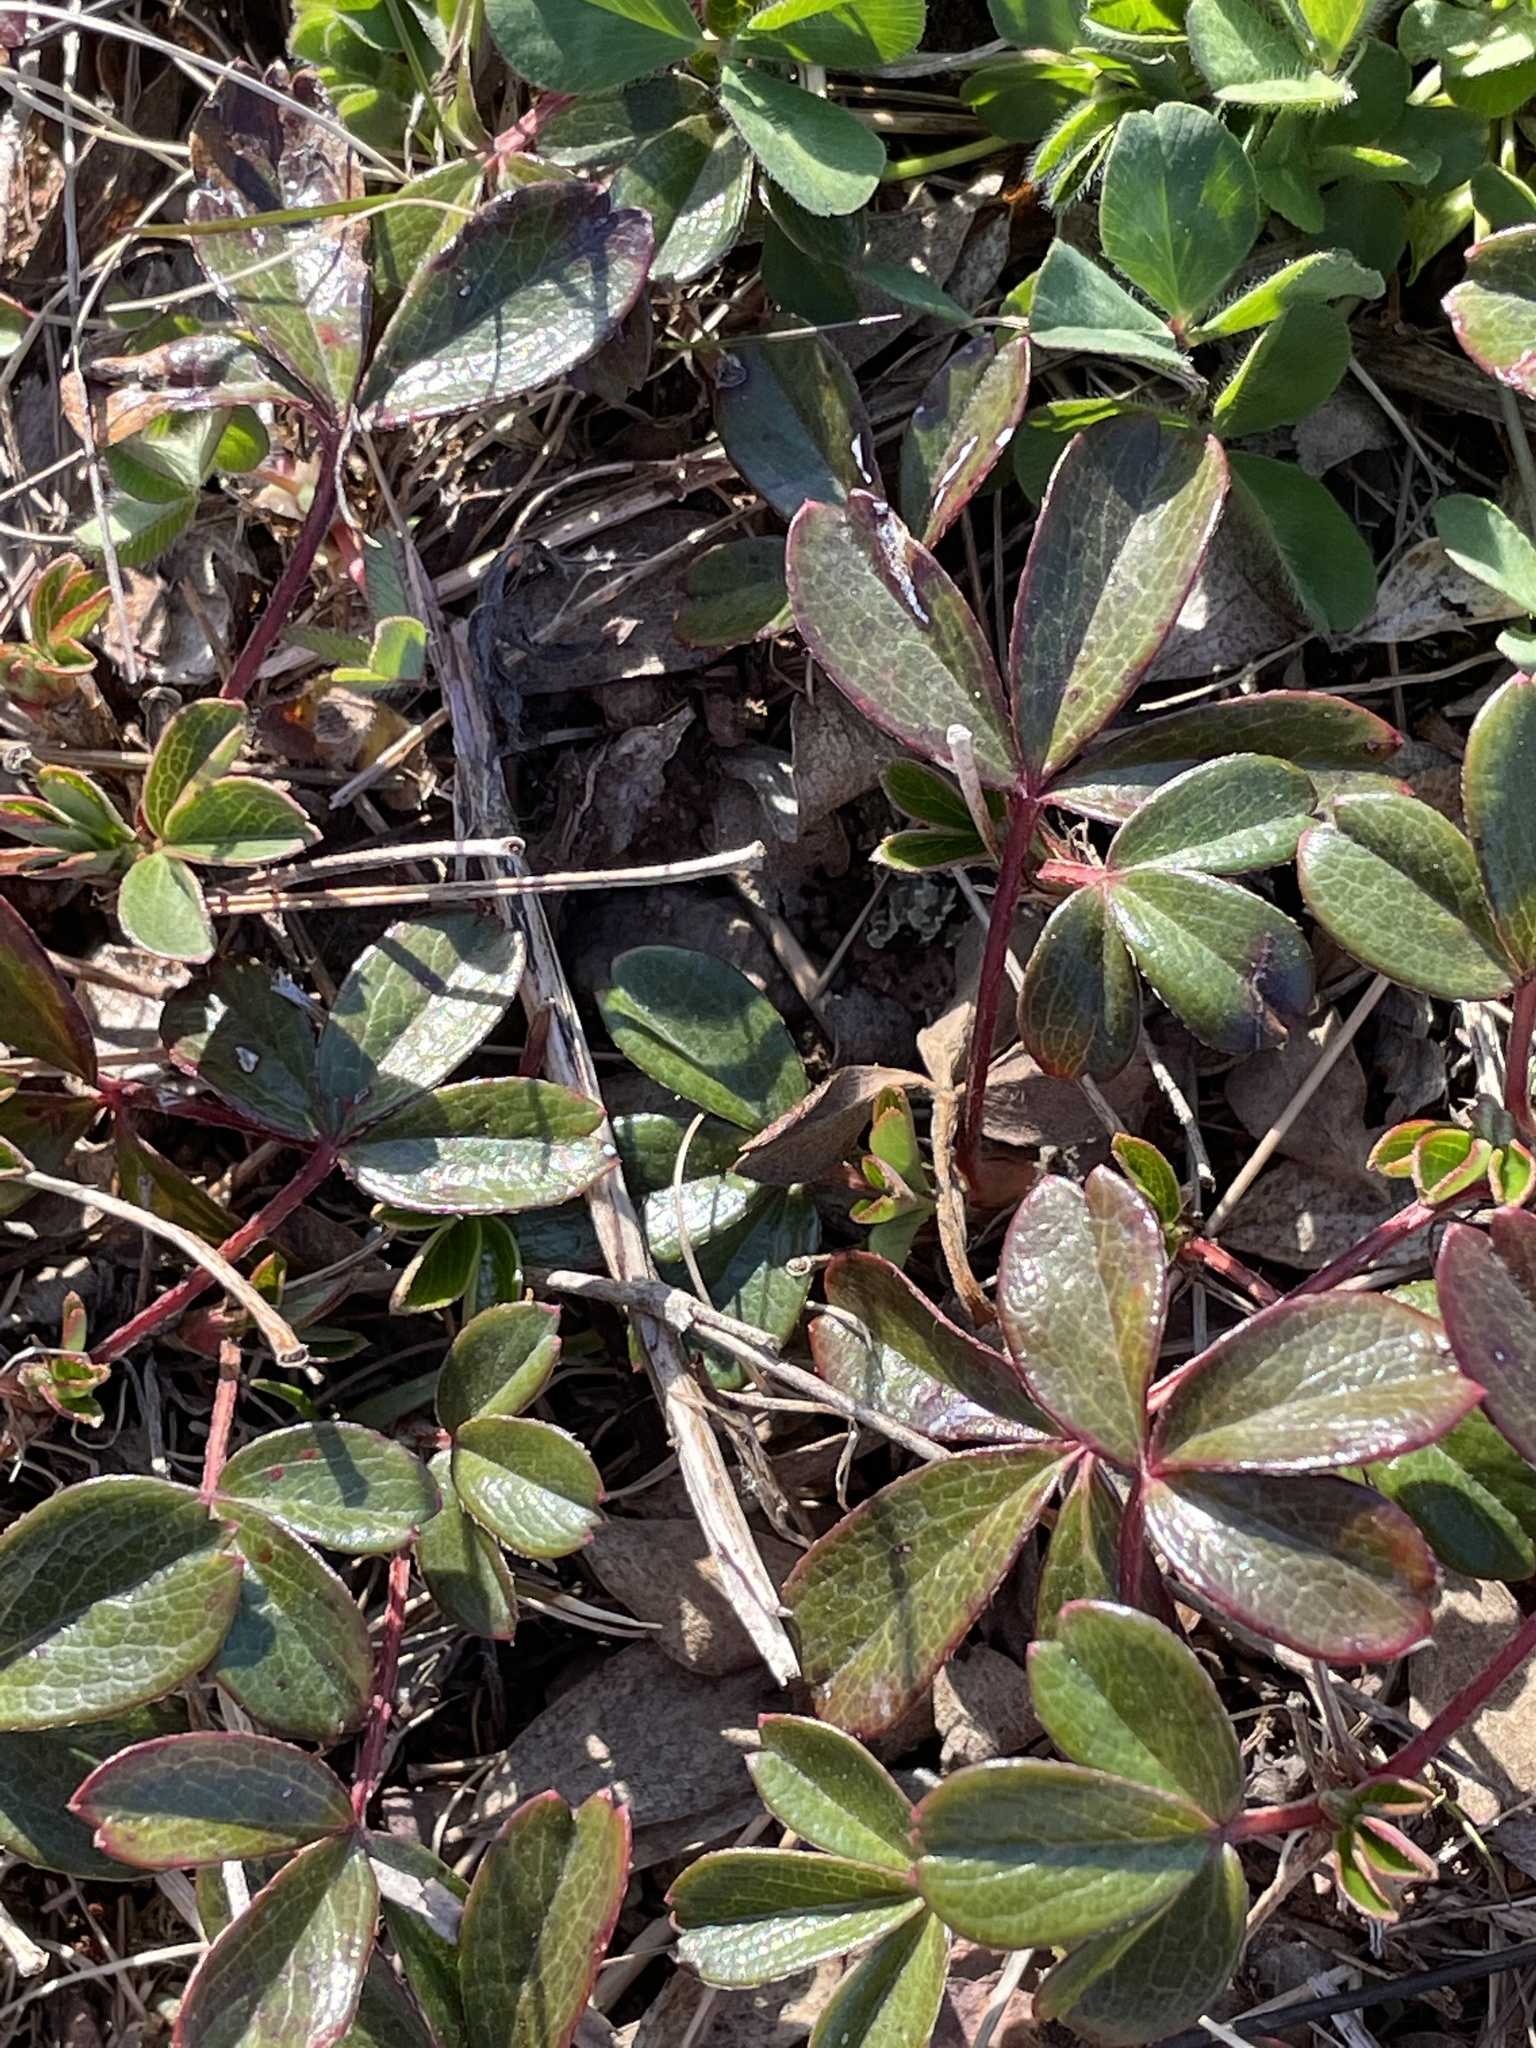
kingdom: Plantae
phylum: Tracheophyta
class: Magnoliopsida
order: Rosales
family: Rosaceae
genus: Sibbaldia
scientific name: Sibbaldia tridentata
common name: Three-toothed cinquefoil
